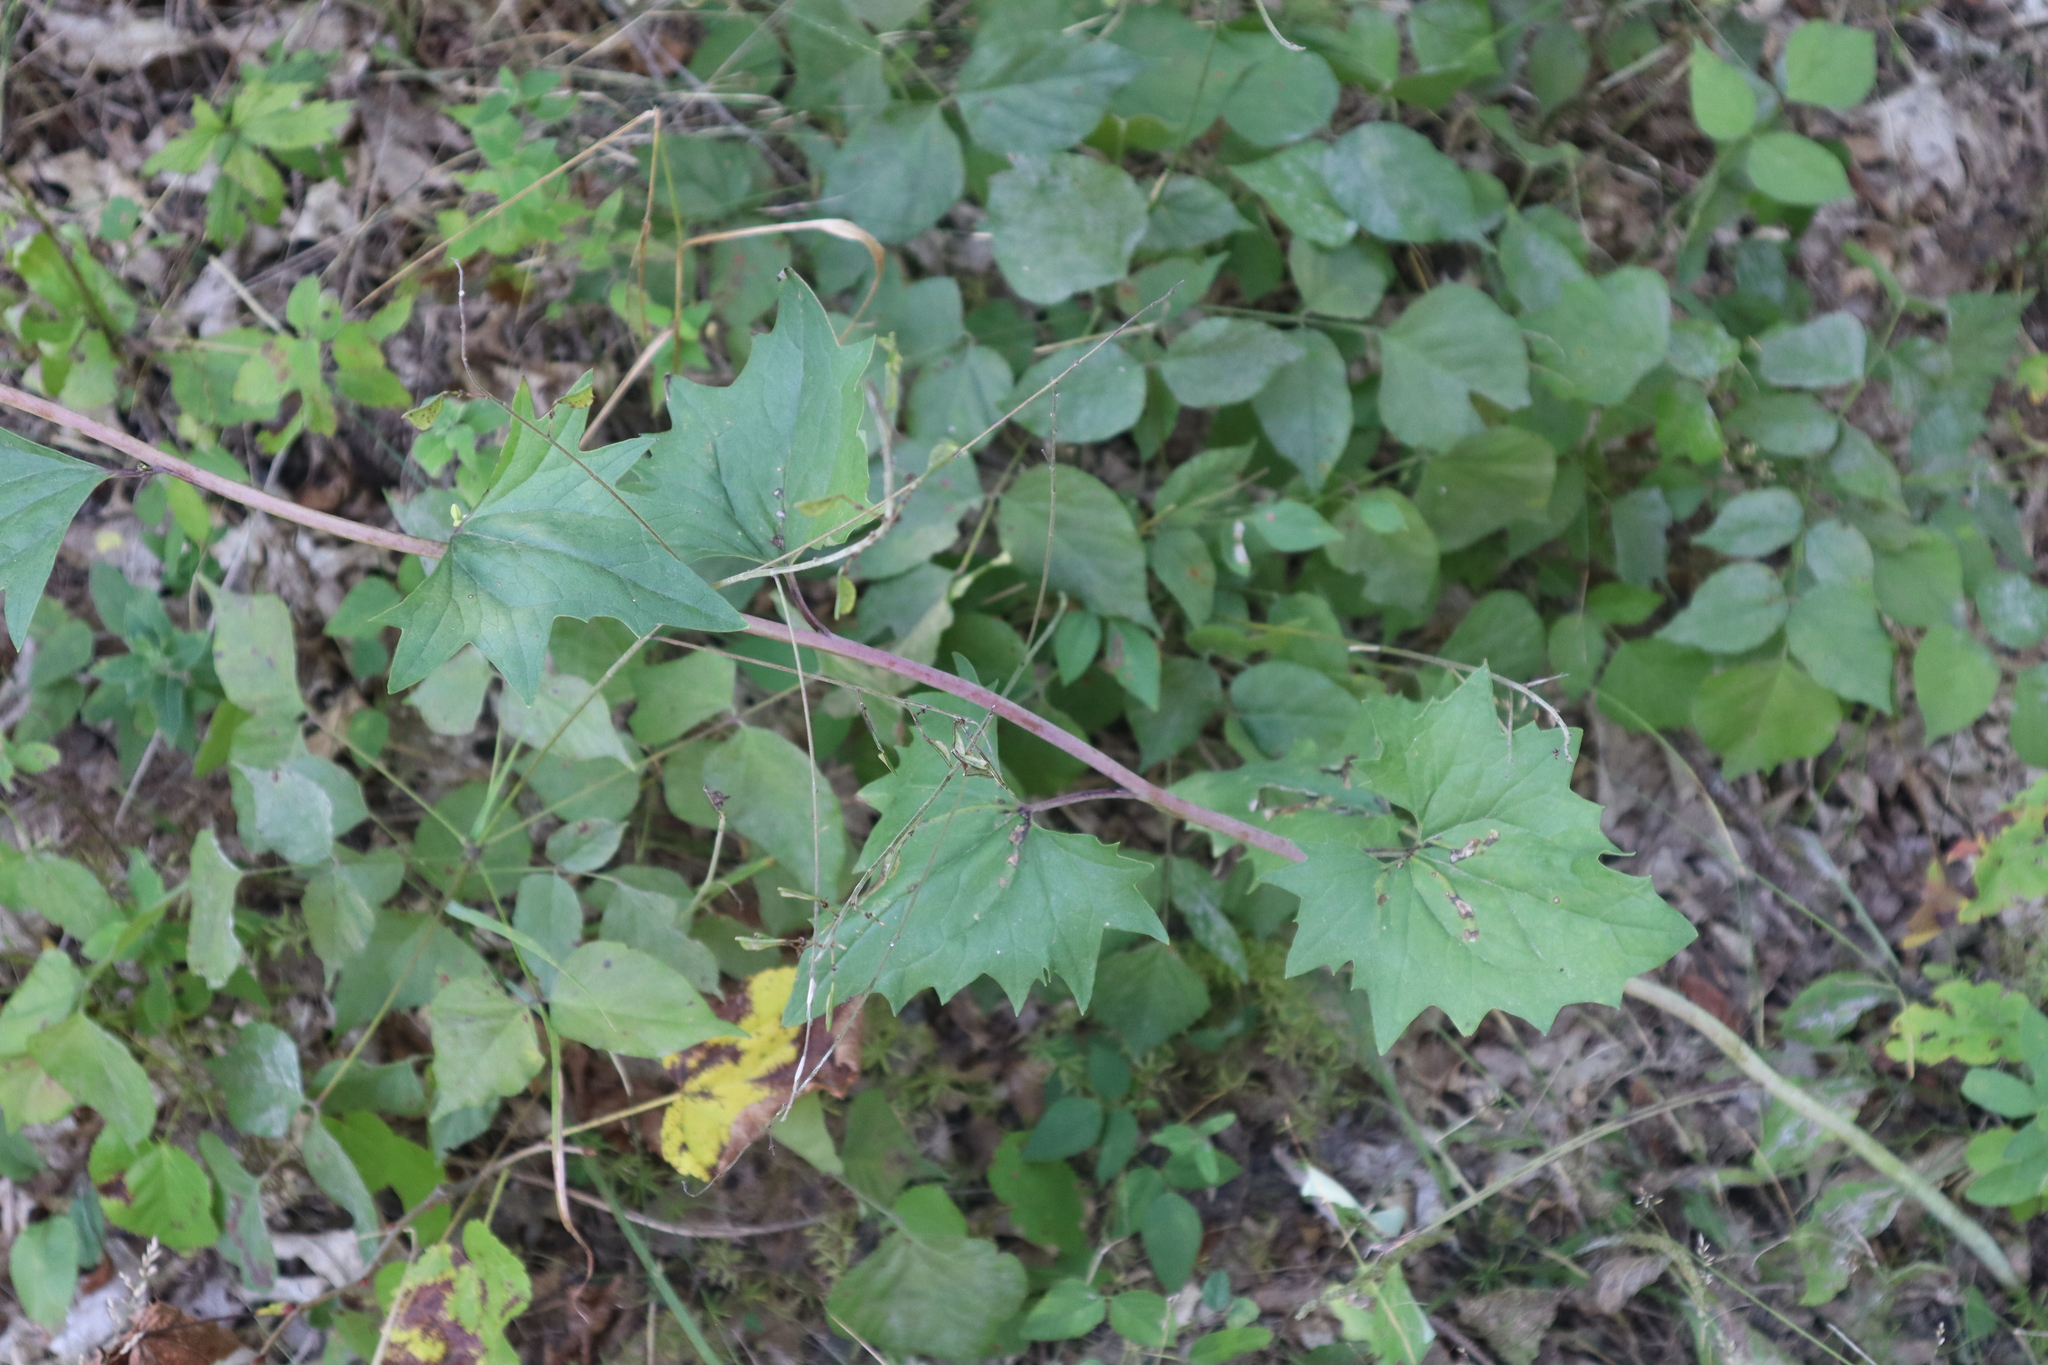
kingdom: Plantae
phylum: Tracheophyta
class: Magnoliopsida
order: Asterales
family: Asteraceae
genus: Arnoglossum
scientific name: Arnoglossum atriplicifolium
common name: Pale indian-plantain
